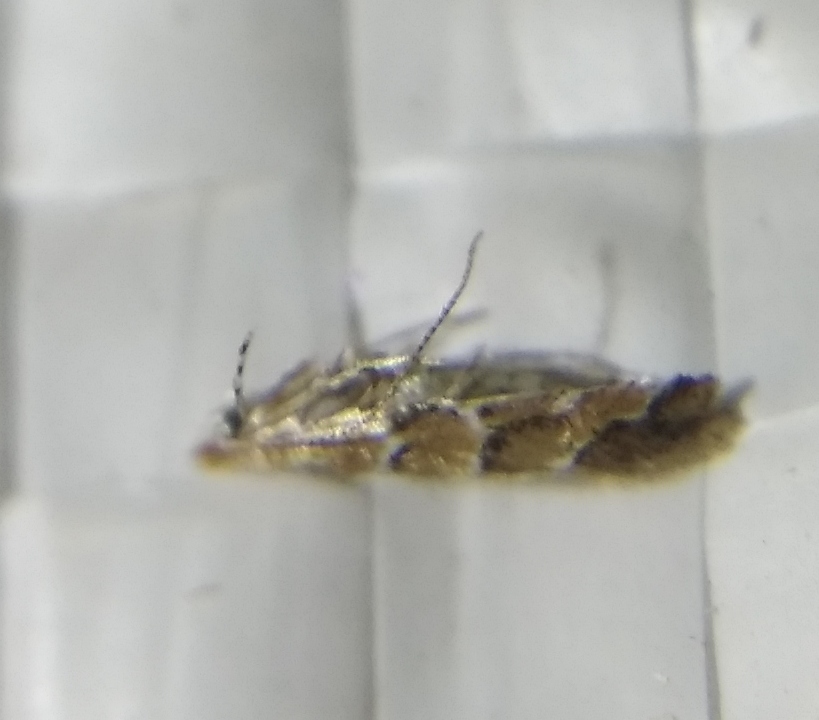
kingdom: Animalia
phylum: Arthropoda
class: Insecta
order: Lepidoptera
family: Gracillariidae
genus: Cameraria
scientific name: Cameraria ohridella
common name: Horse-chestnut leaf-miner
